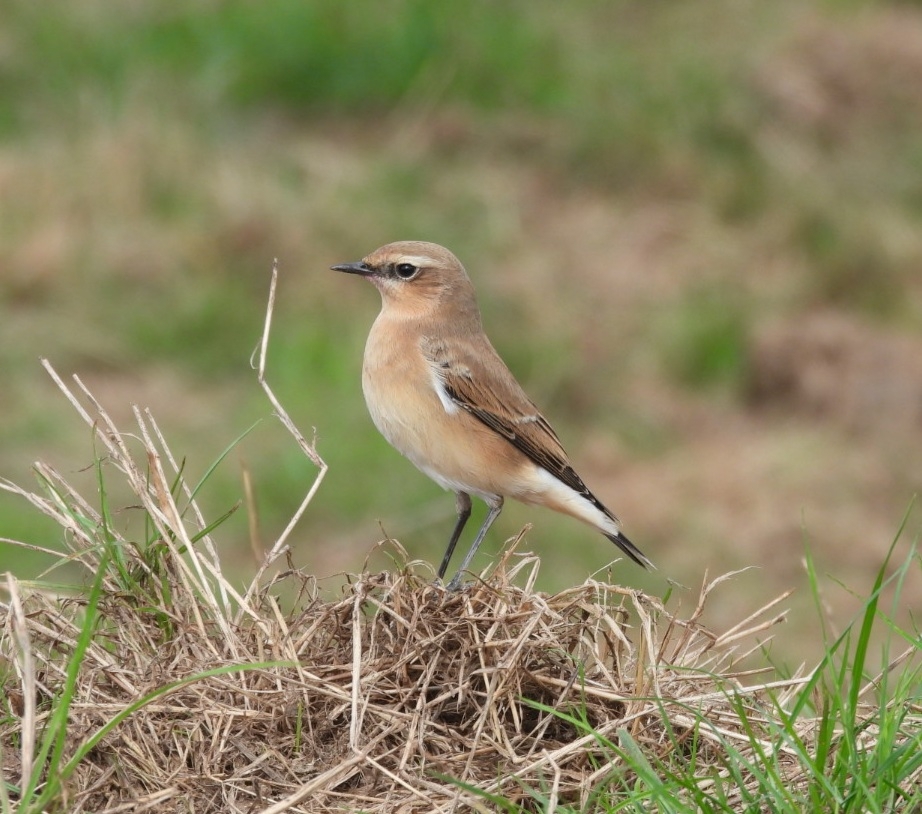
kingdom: Animalia
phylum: Chordata
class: Aves
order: Passeriformes
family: Muscicapidae
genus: Oenanthe
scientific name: Oenanthe oenanthe
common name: Northern wheatear
